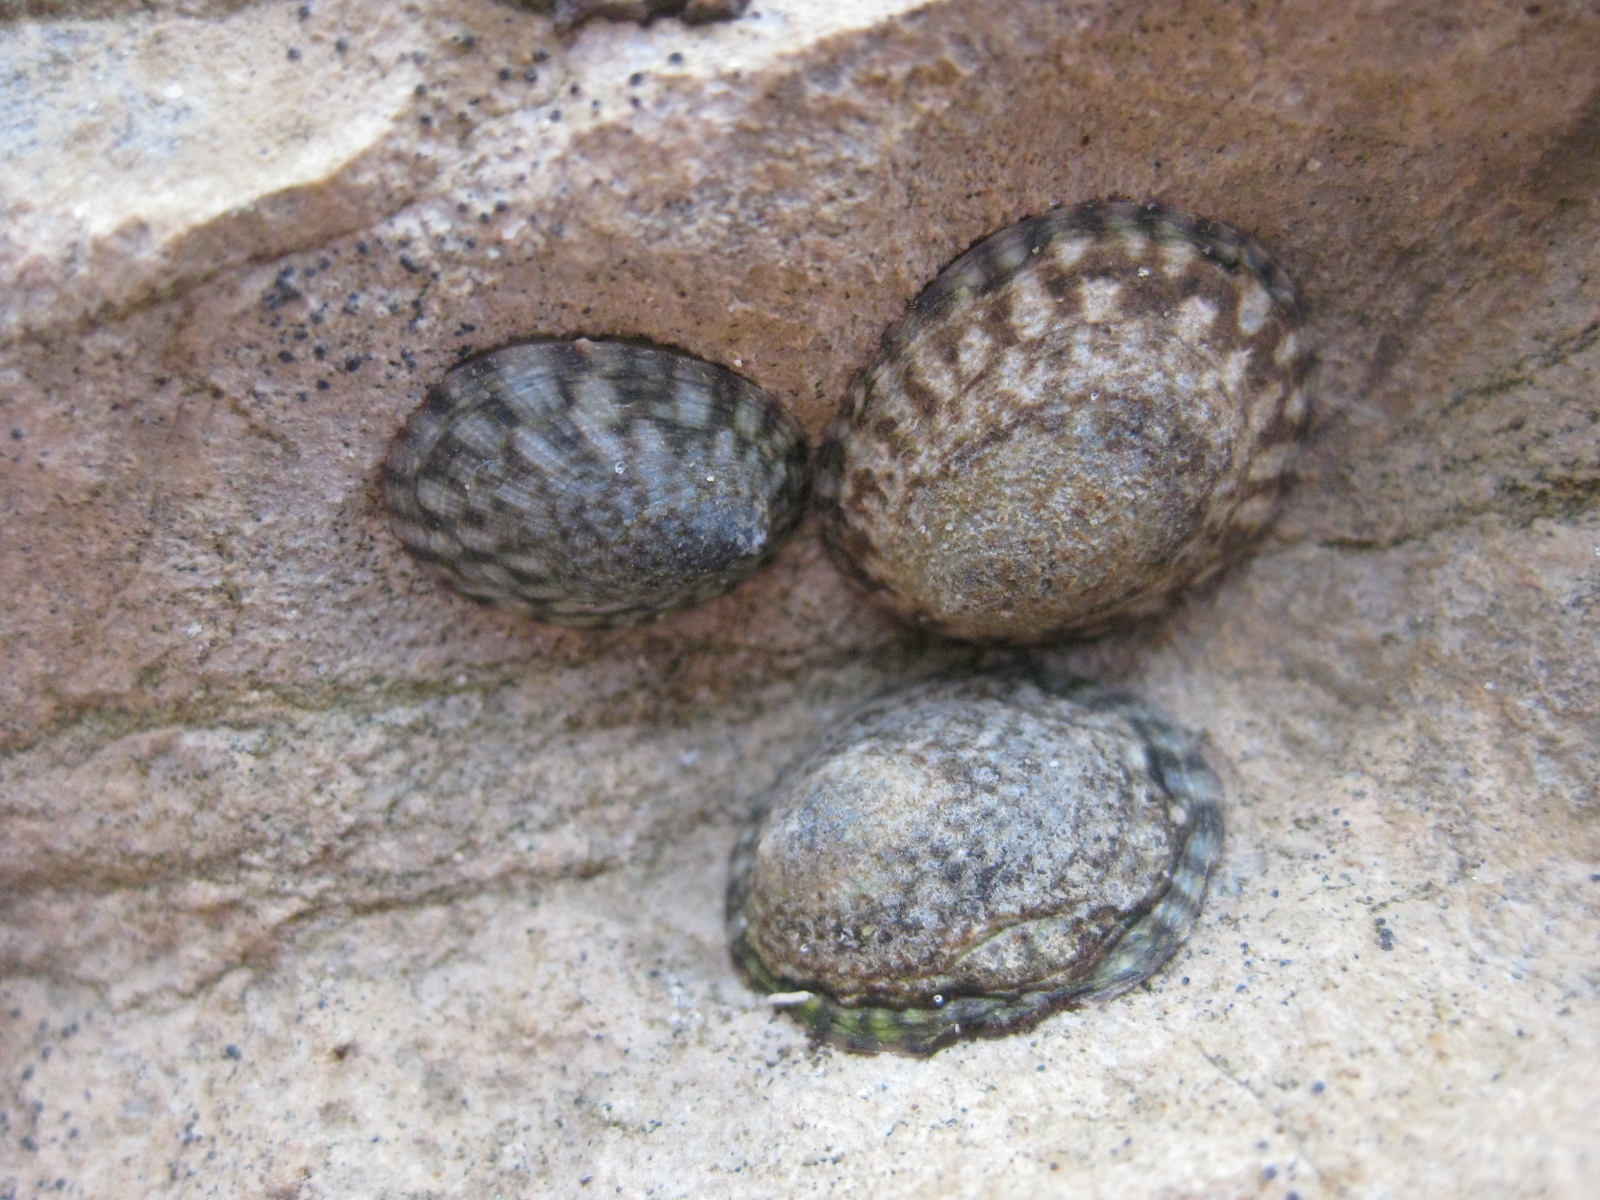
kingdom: Animalia
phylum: Mollusca
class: Gastropoda
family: Lottiidae
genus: Notoacmea
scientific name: Notoacmea pileopsis
